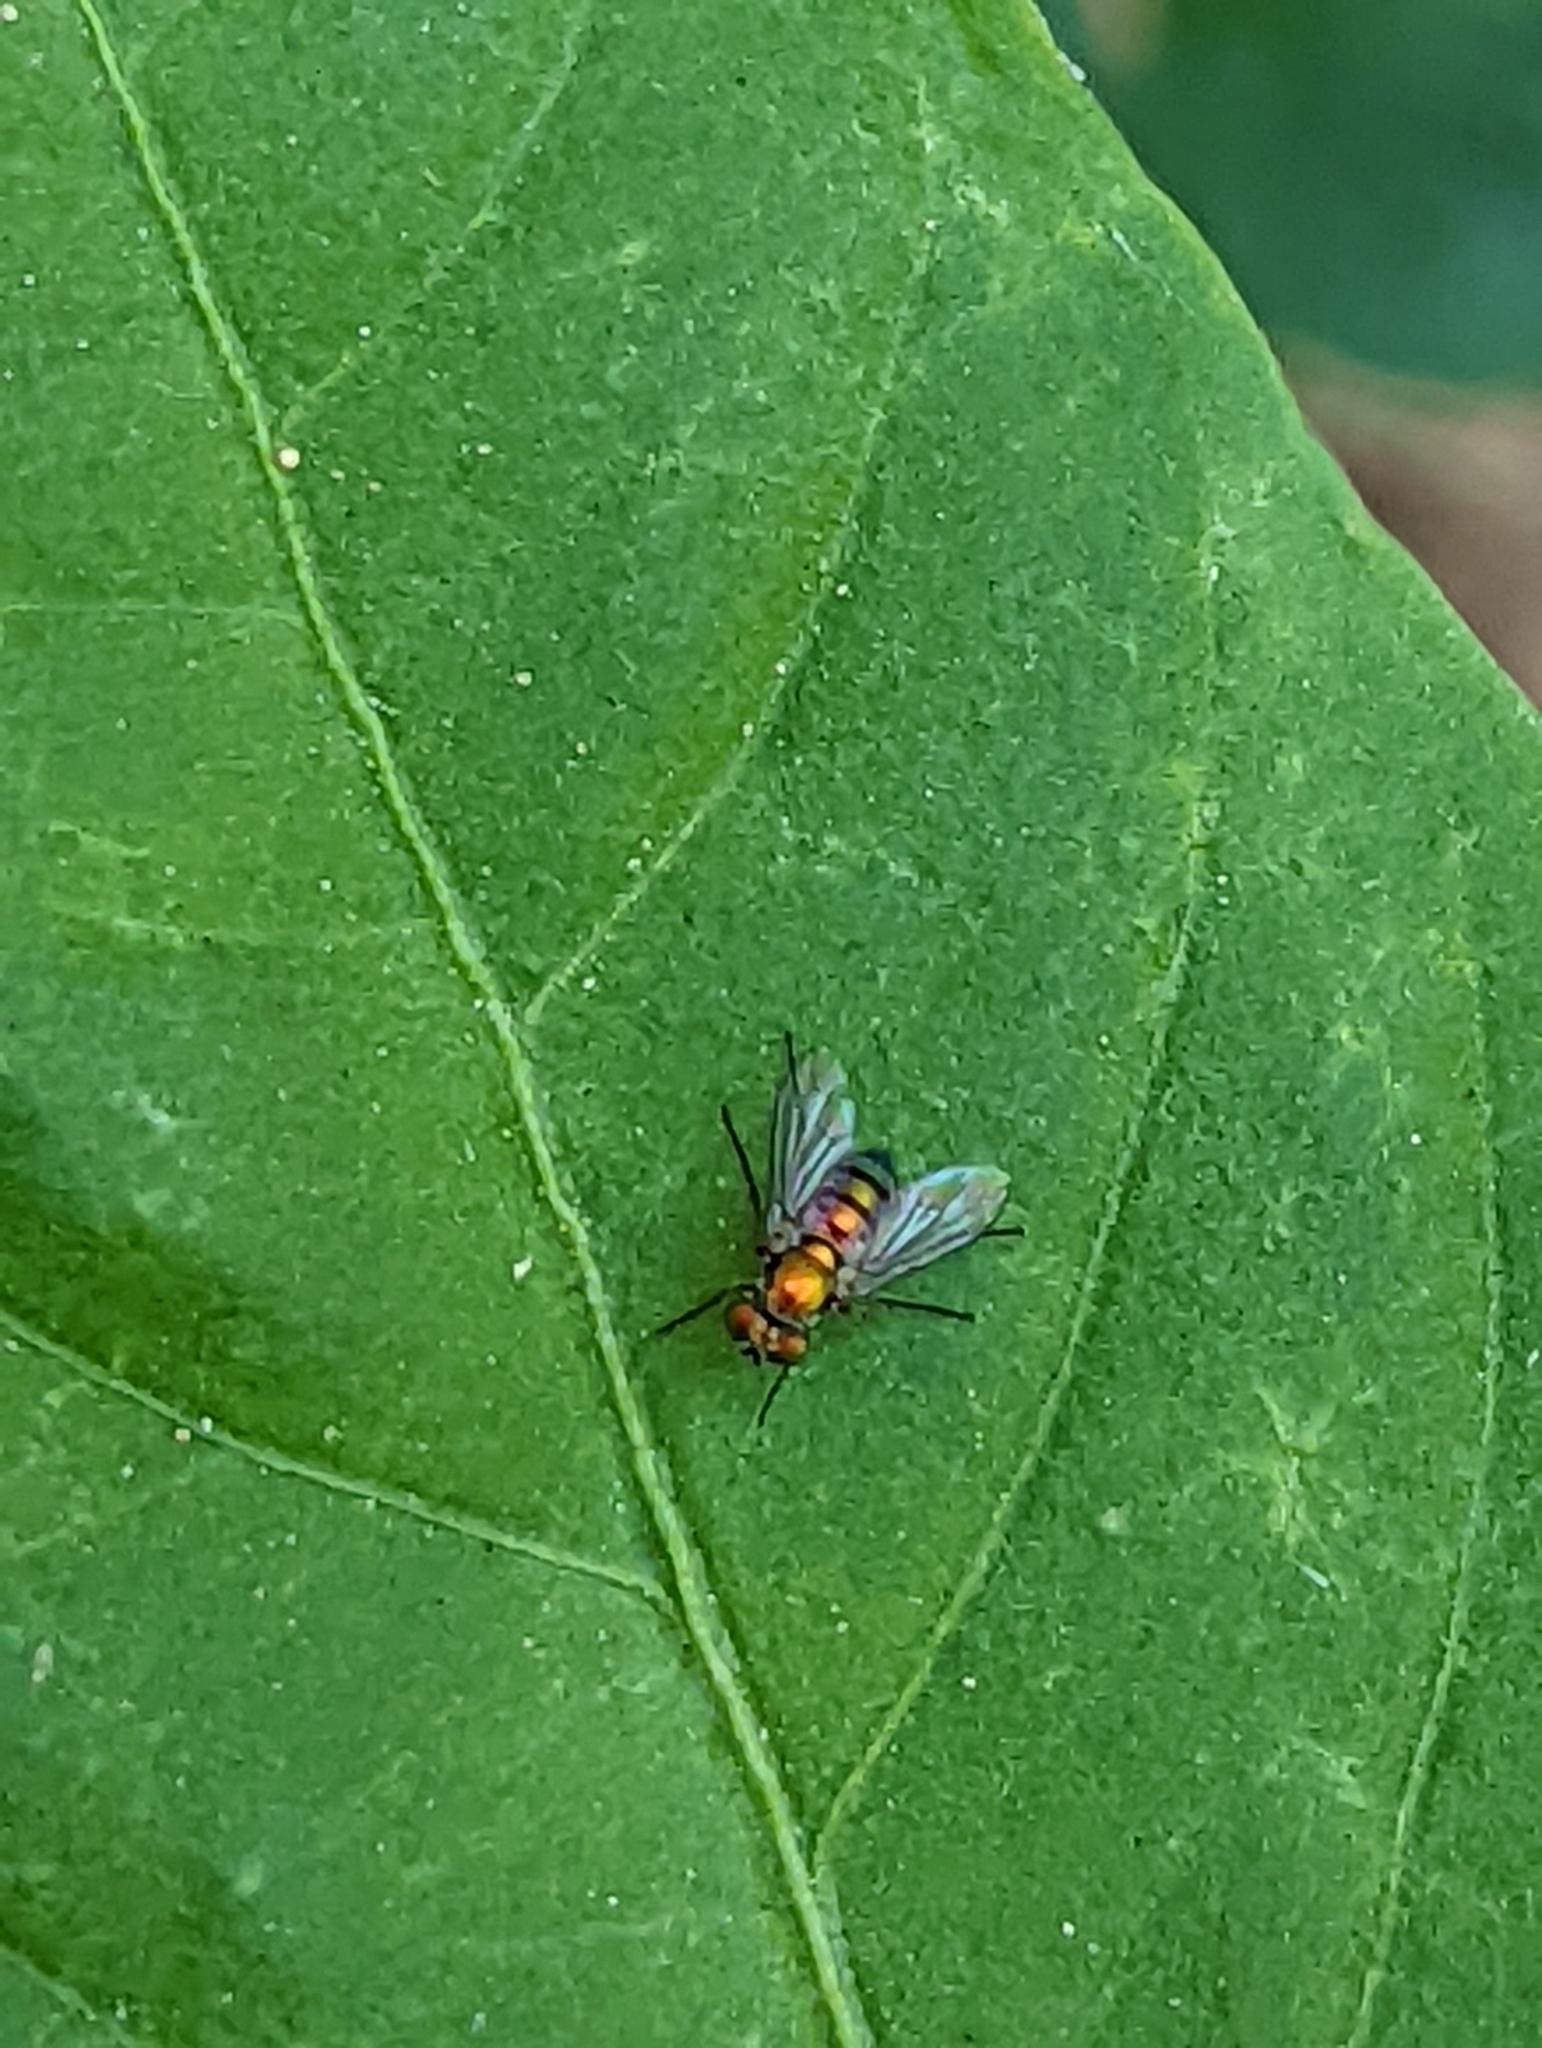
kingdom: Animalia
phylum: Arthropoda
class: Insecta
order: Diptera
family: Dolichopodidae
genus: Condylostylus
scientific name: Condylostylus longicornis
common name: Long-legged fly
